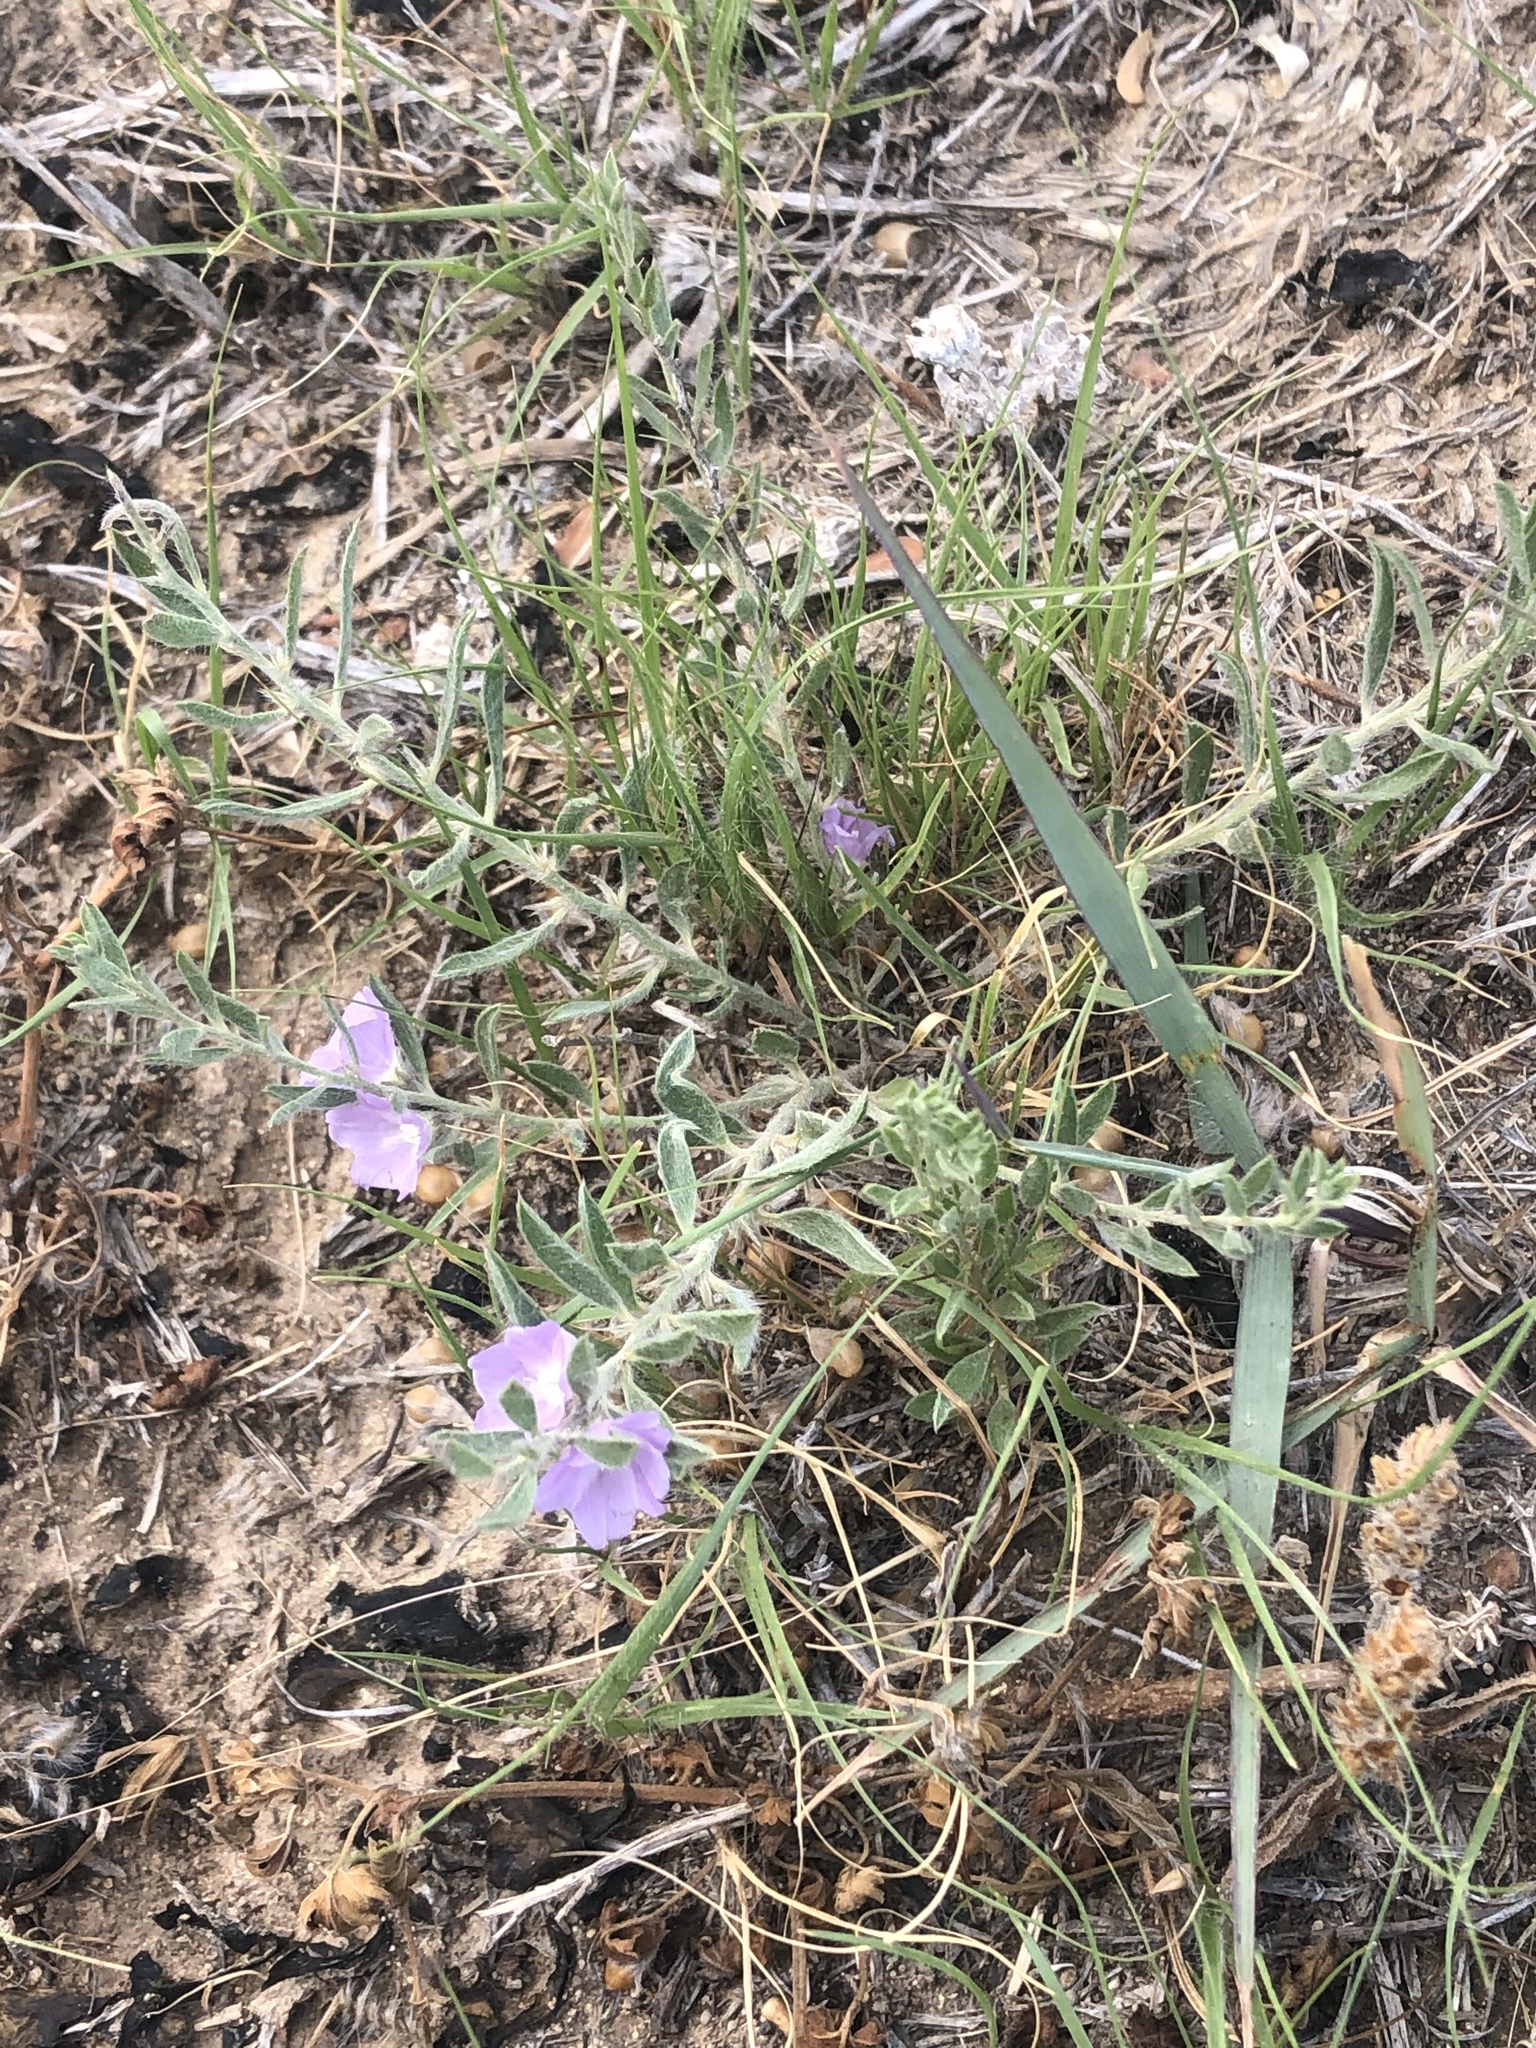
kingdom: Plantae
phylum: Tracheophyta
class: Magnoliopsida
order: Solanales
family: Convolvulaceae
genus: Evolvulus
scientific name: Evolvulus nuttallianus
